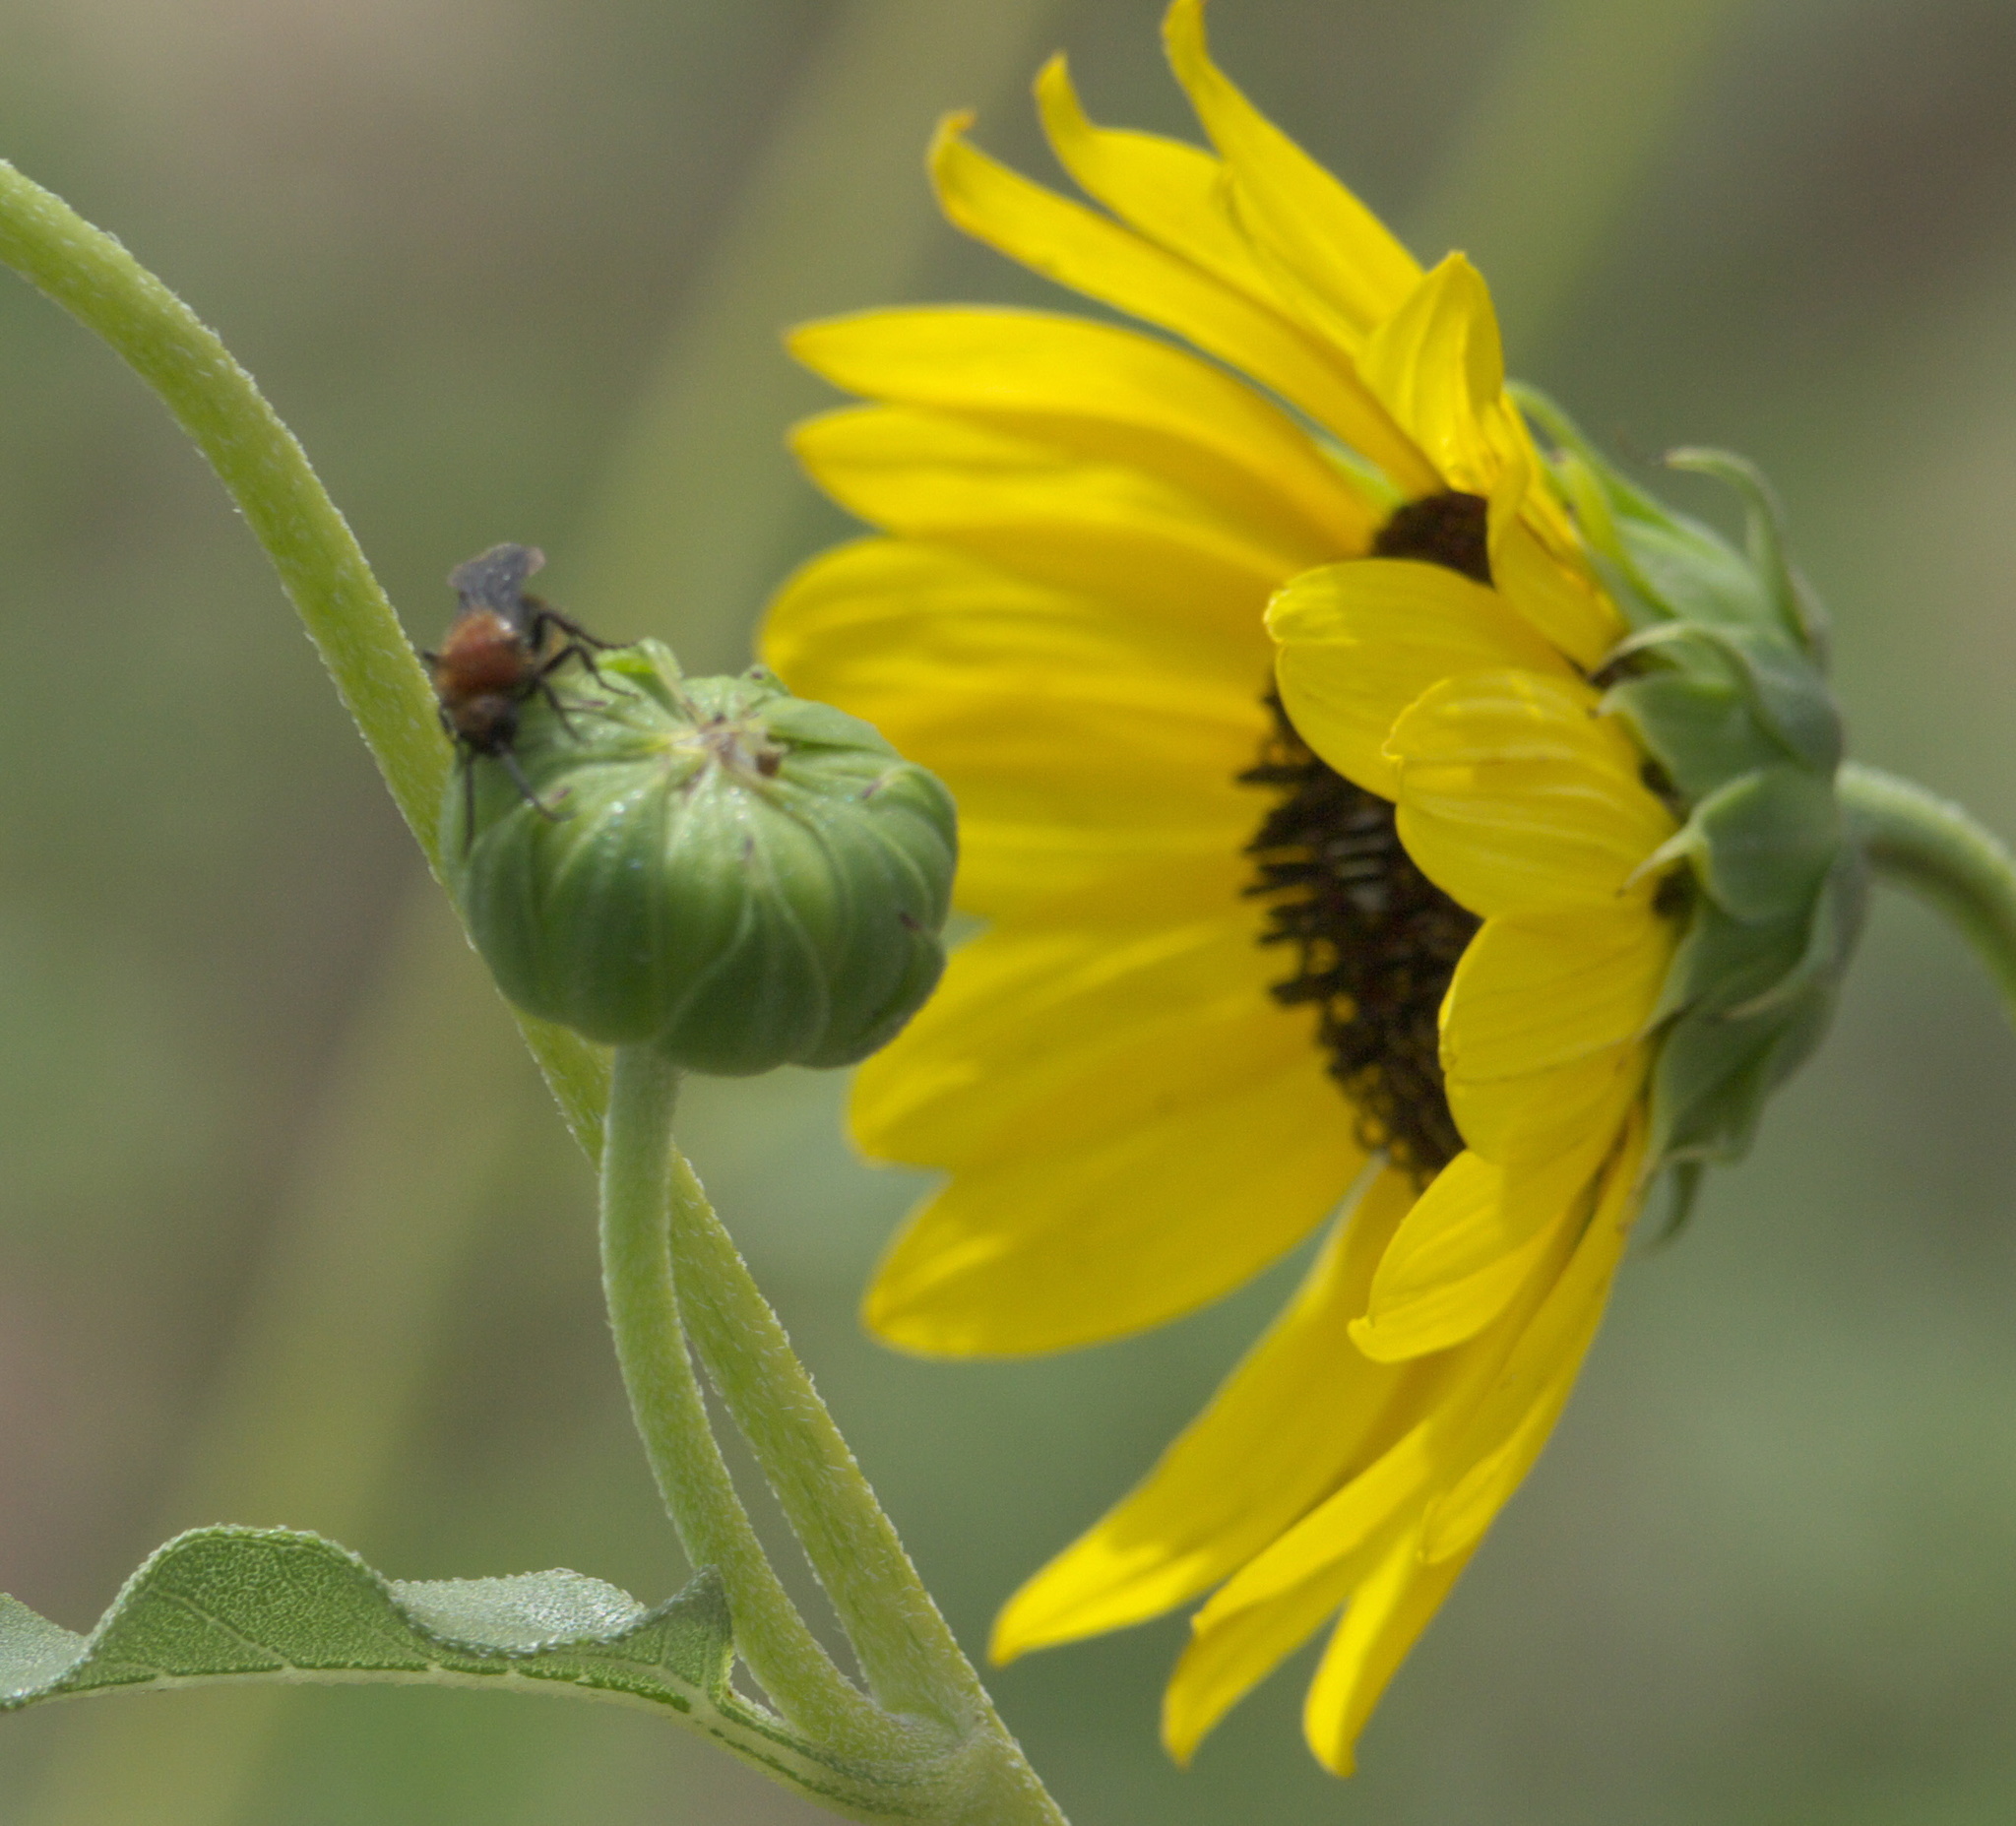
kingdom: Animalia
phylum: Arthropoda
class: Insecta
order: Hymenoptera
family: Mutillidae
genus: Pseudomethoca
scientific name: Pseudomethoca
